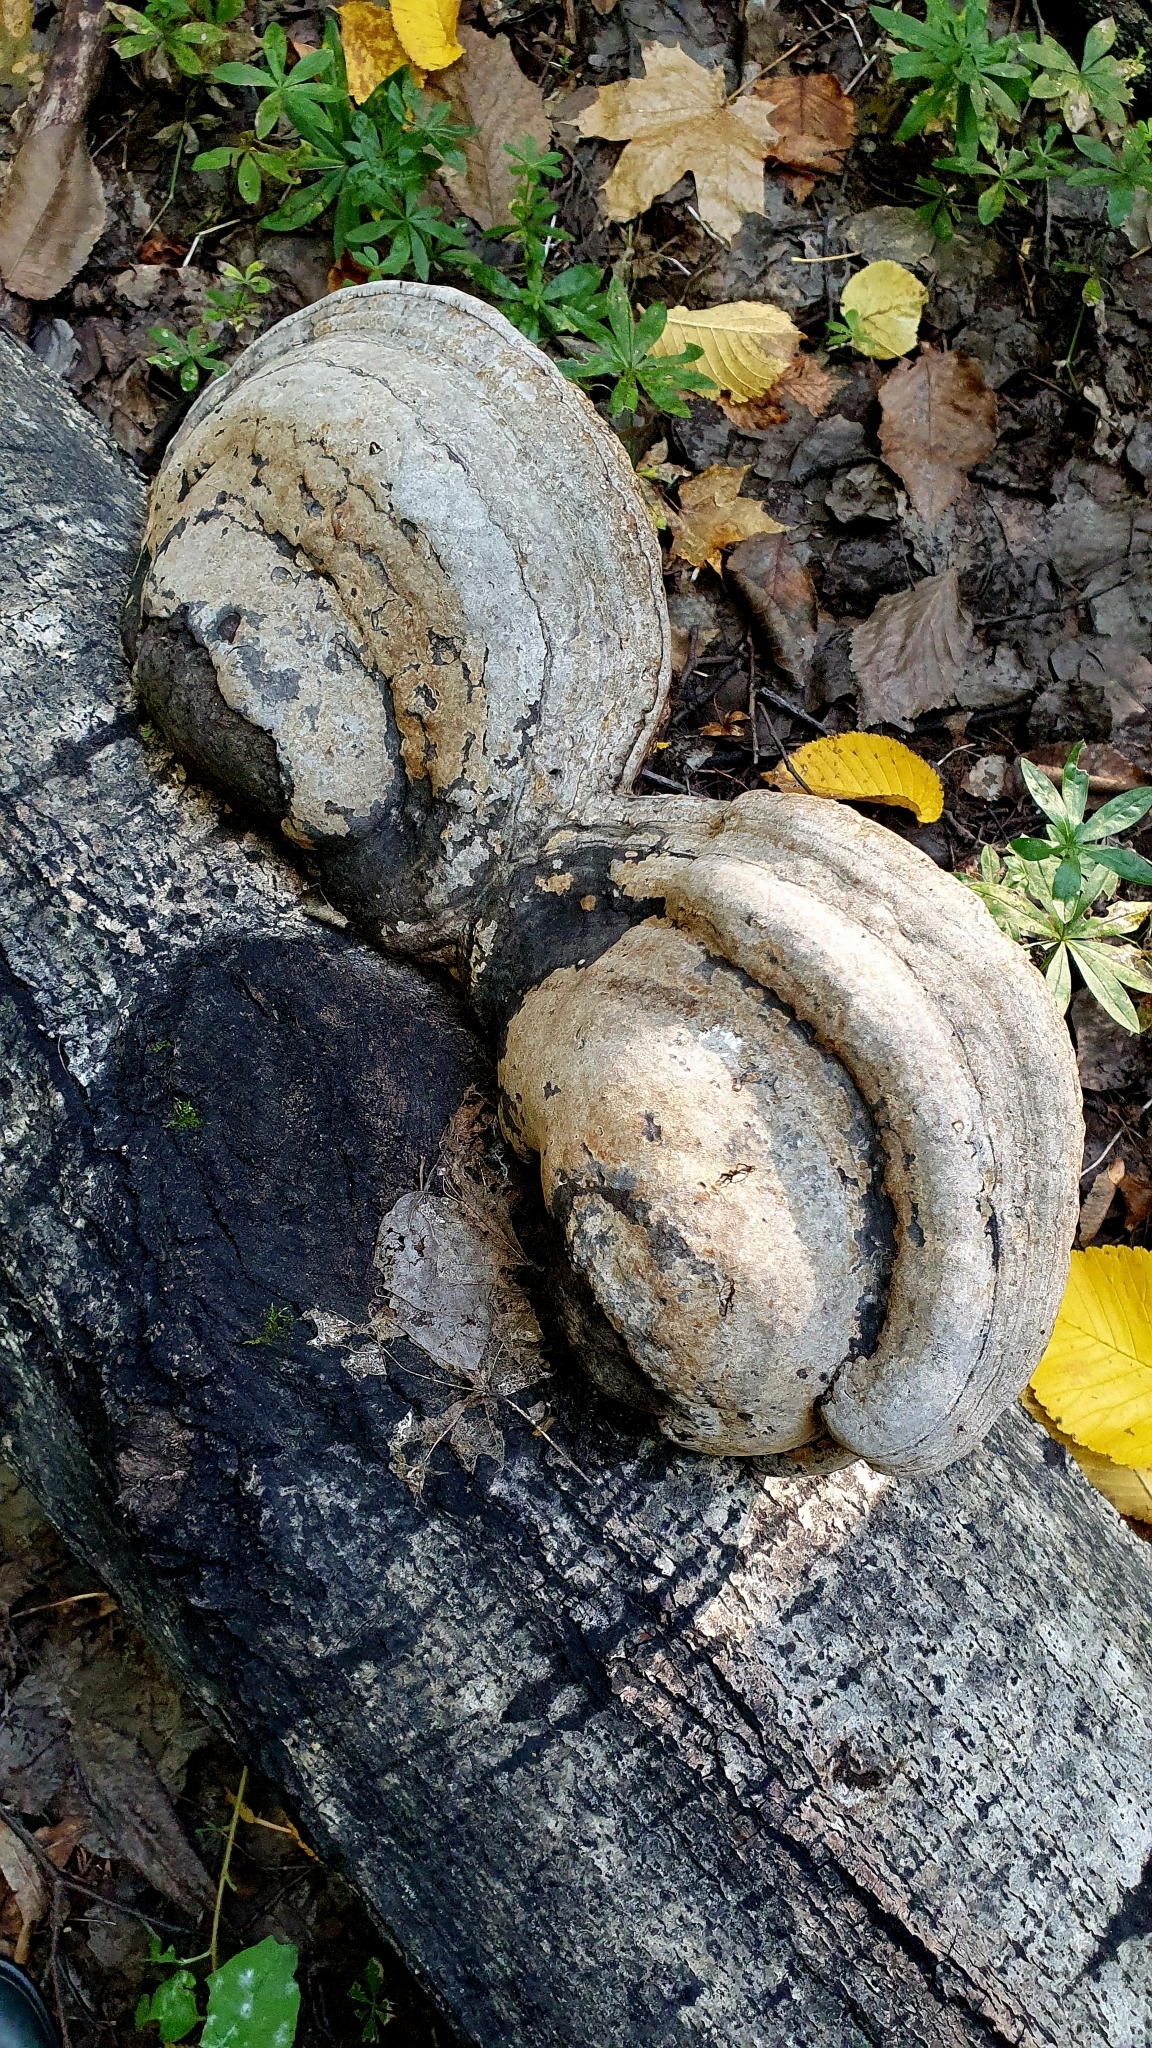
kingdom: Fungi
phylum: Basidiomycota
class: Agaricomycetes
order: Polyporales
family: Polyporaceae
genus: Fomes
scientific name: Fomes fomentarius
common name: Hoof fungus
